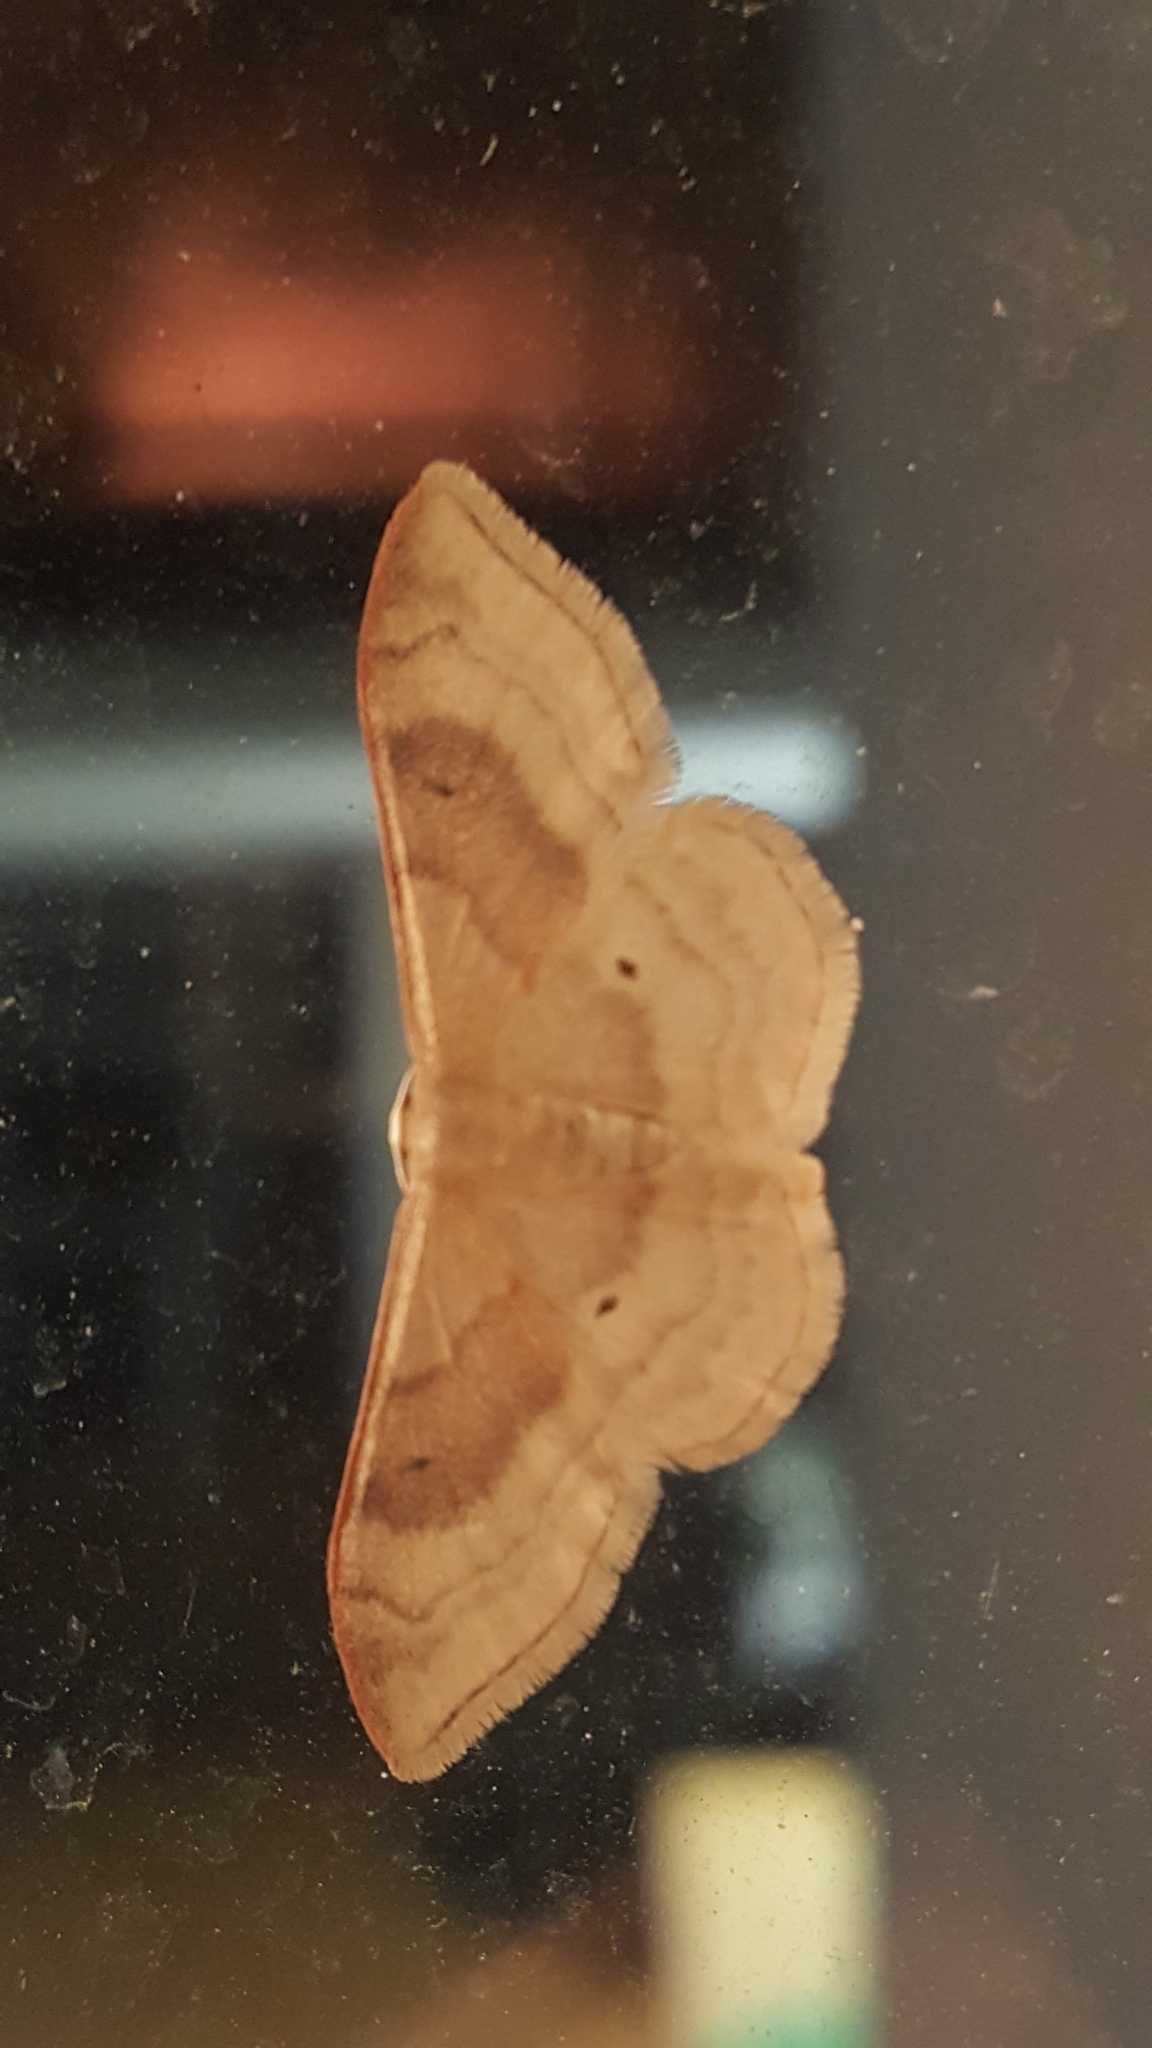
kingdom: Animalia
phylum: Arthropoda
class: Insecta
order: Lepidoptera
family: Geometridae
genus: Idaea
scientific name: Idaea degeneraria
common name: Portland ribbon wave
